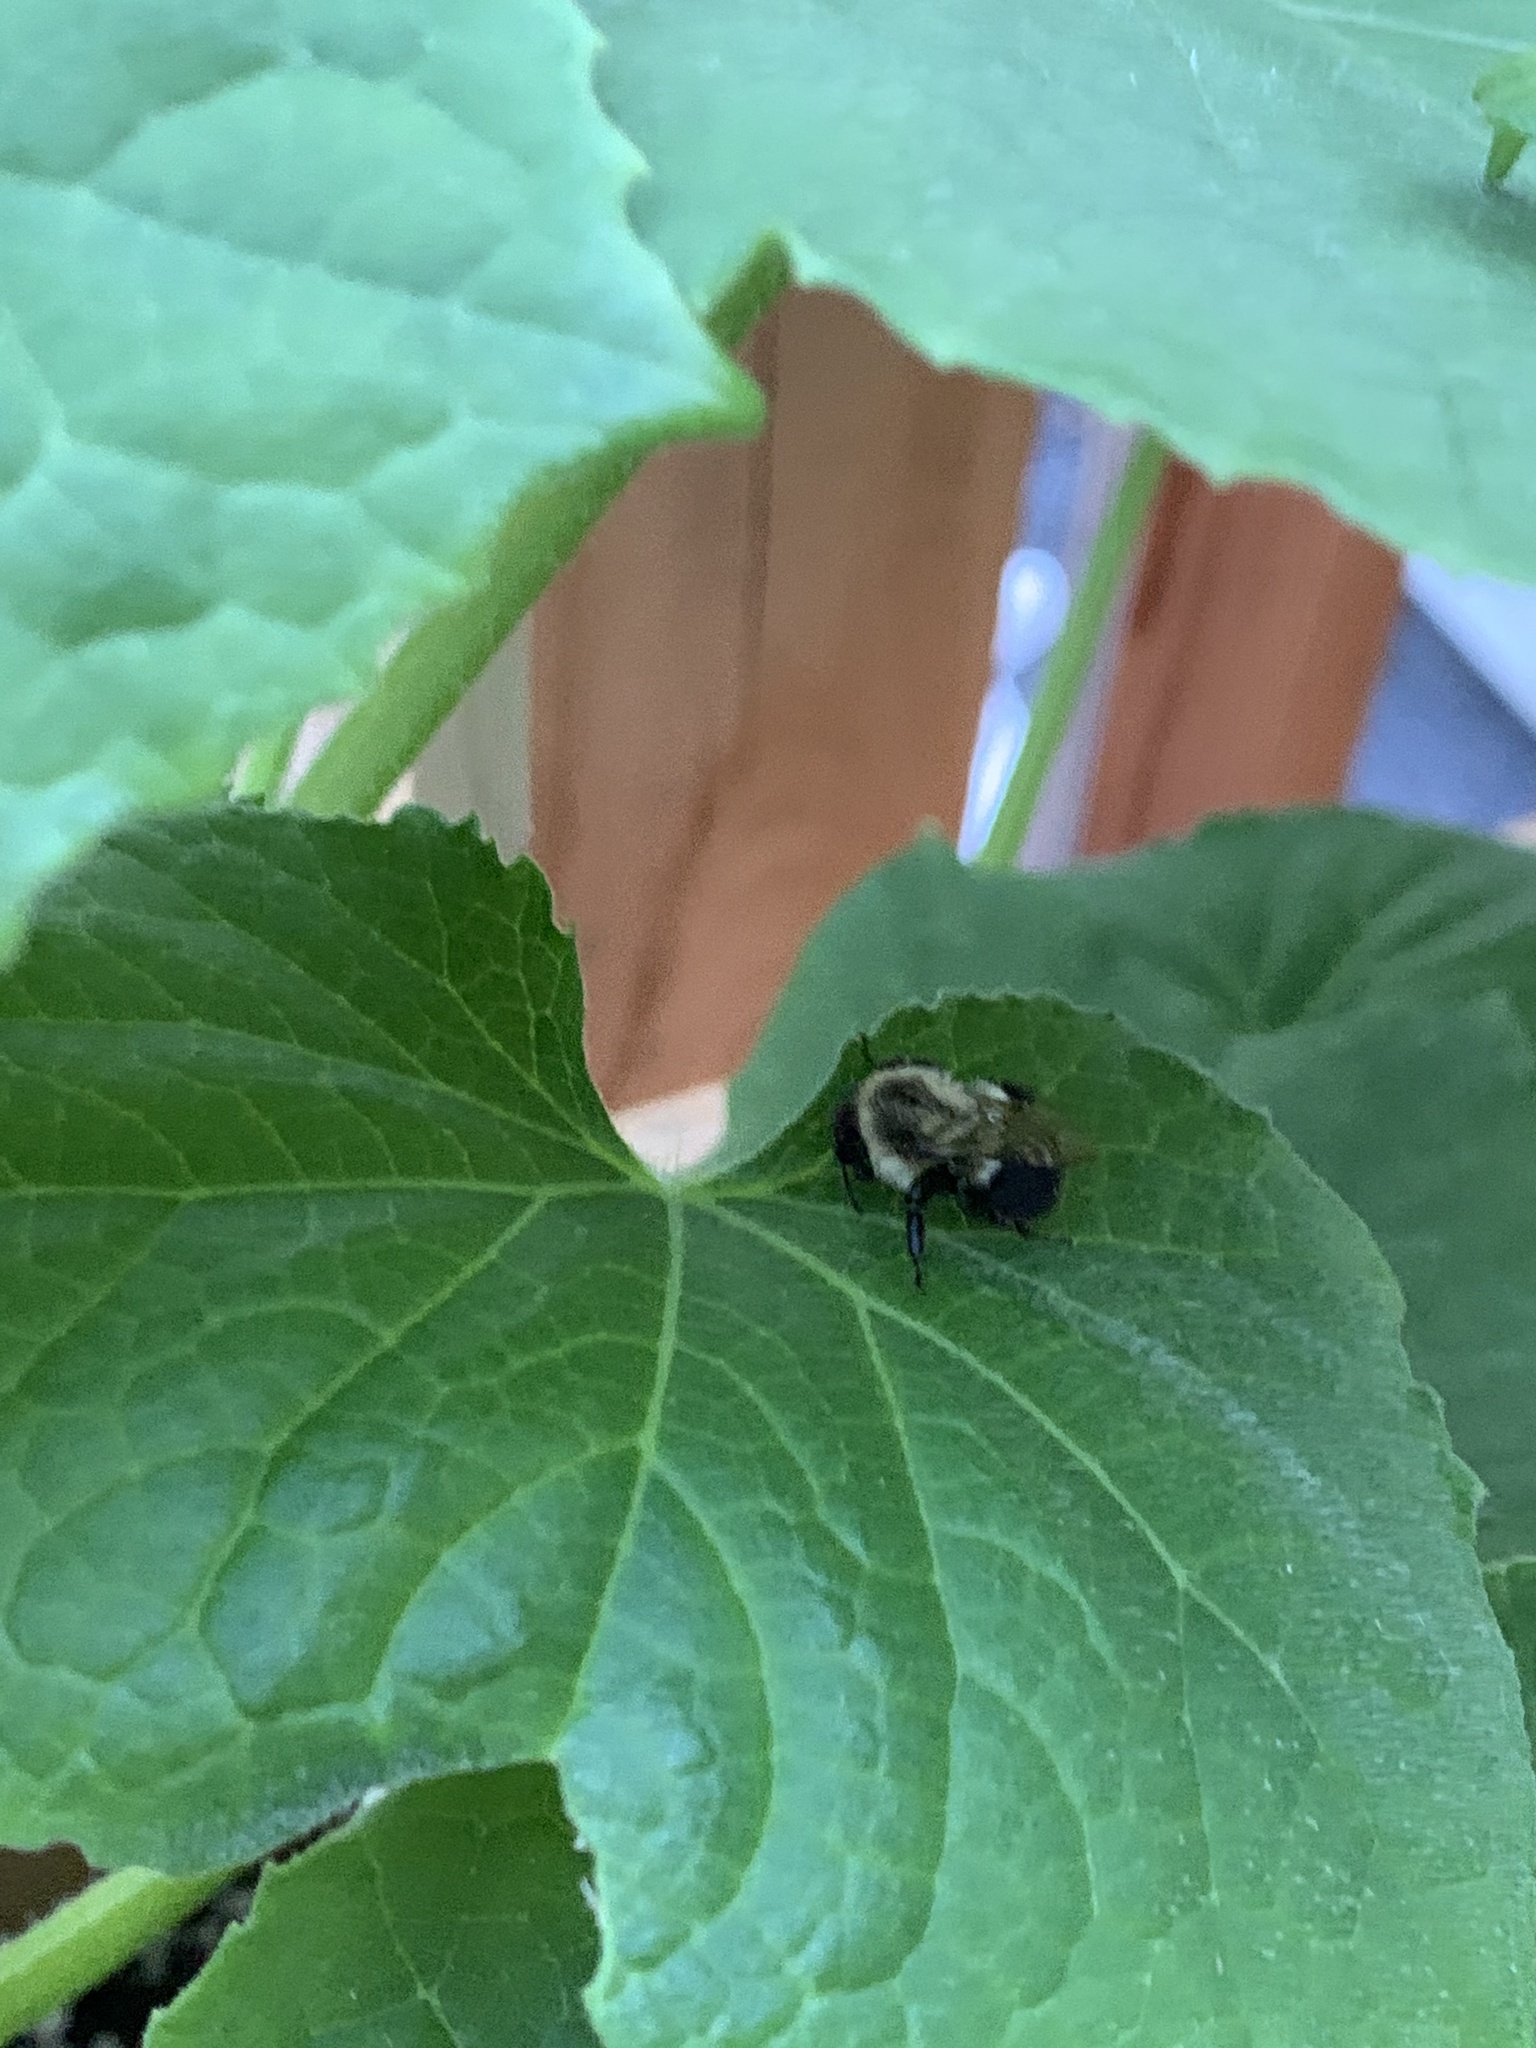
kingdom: Animalia
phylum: Arthropoda
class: Insecta
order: Hymenoptera
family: Apidae
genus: Bombus
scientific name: Bombus impatiens
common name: Common eastern bumble bee
